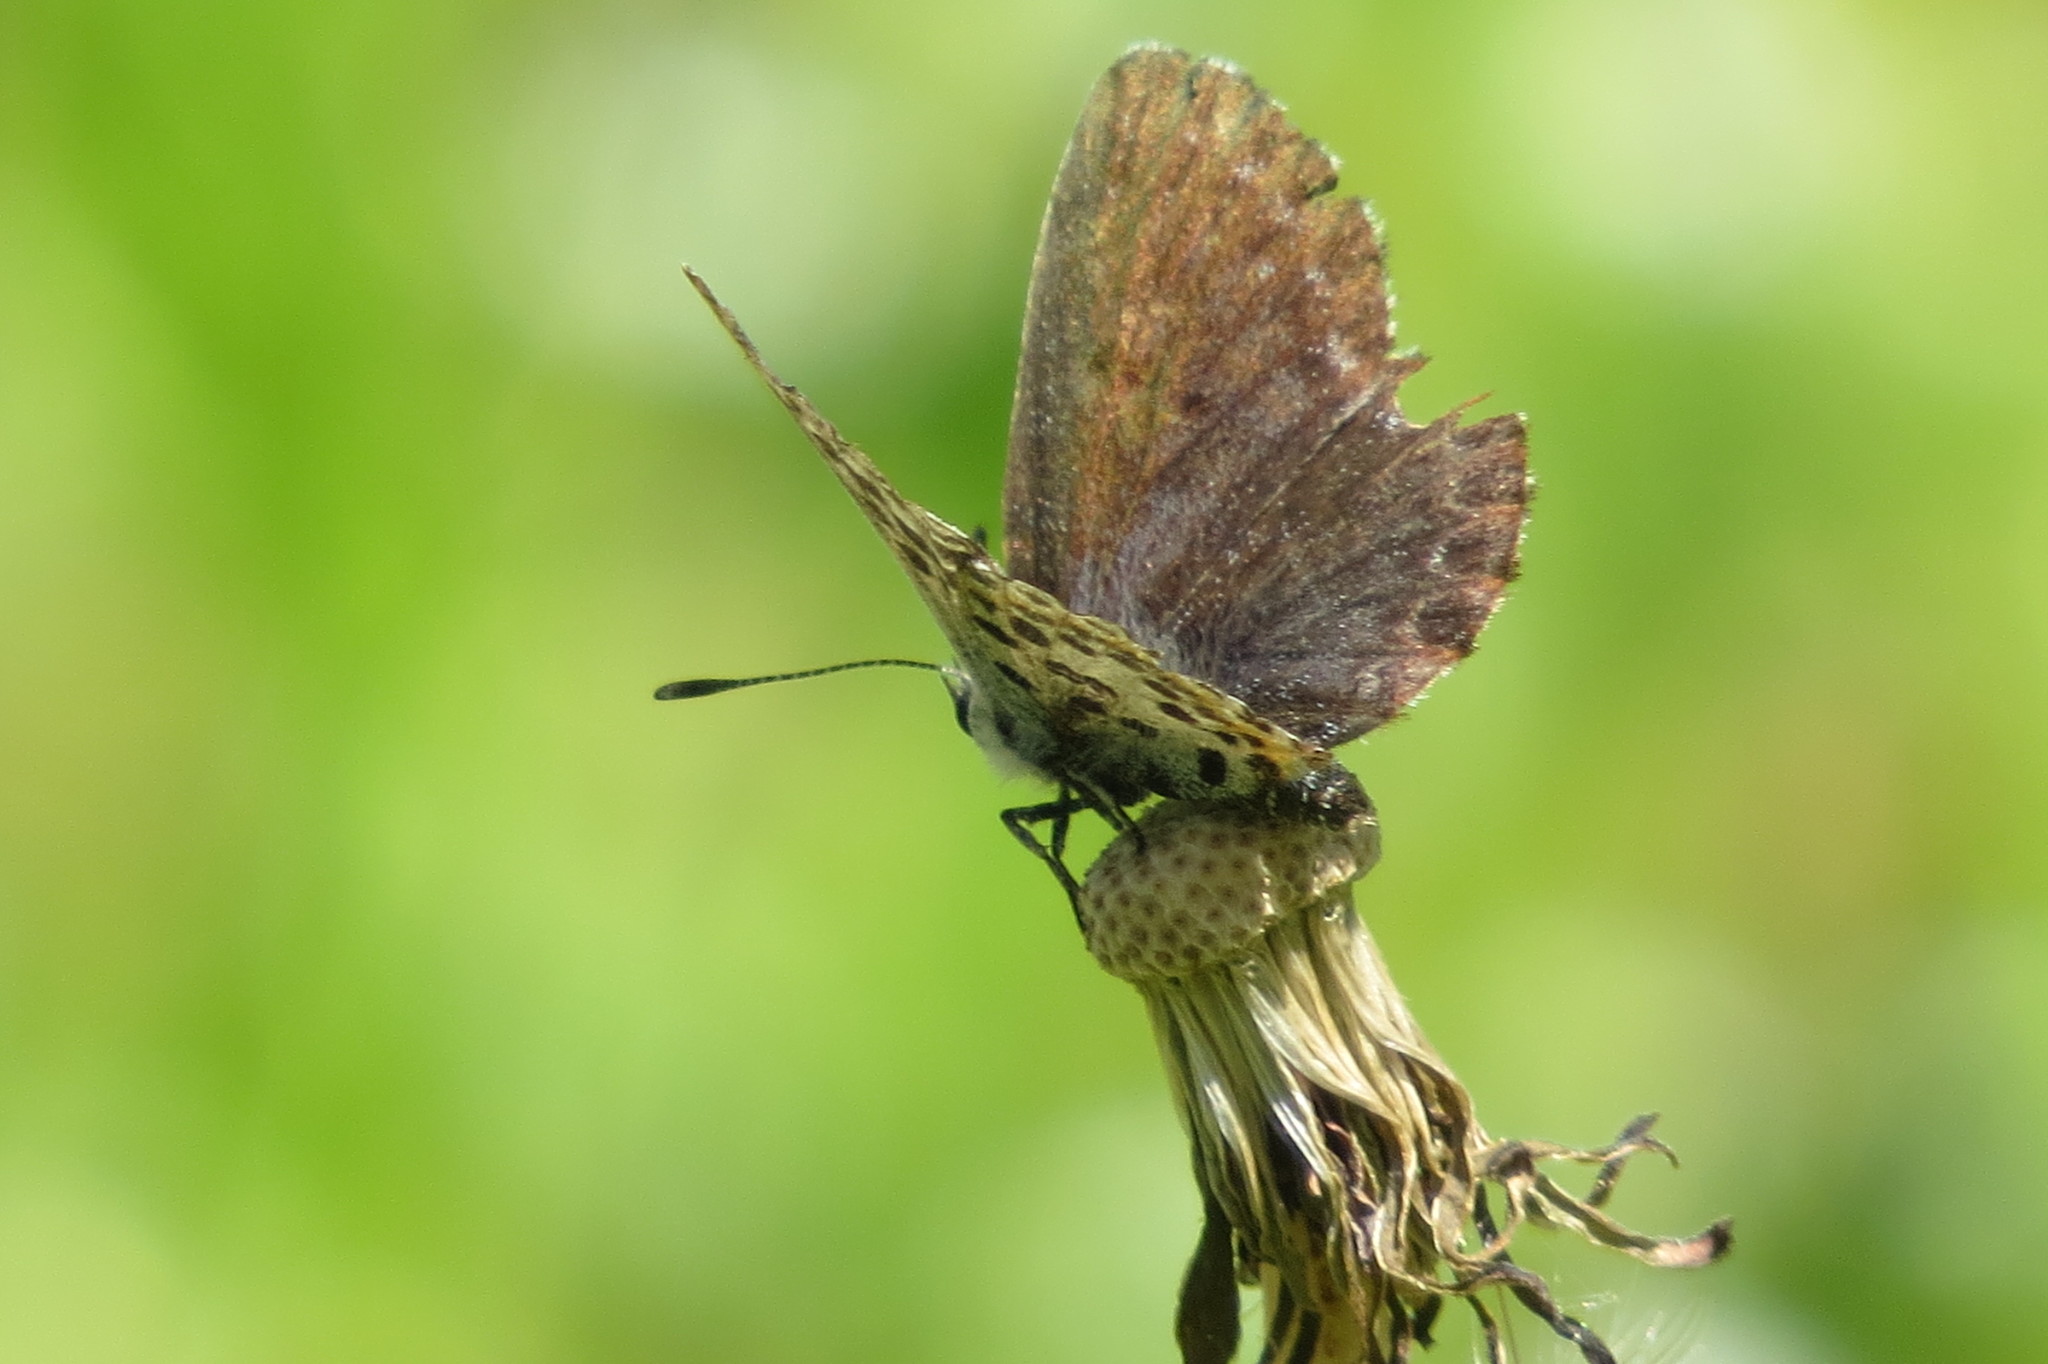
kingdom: Animalia
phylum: Arthropoda
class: Insecta
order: Lepidoptera
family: Lycaenidae
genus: Scolitantides
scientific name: Scolitantides orion
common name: Chequered blue
